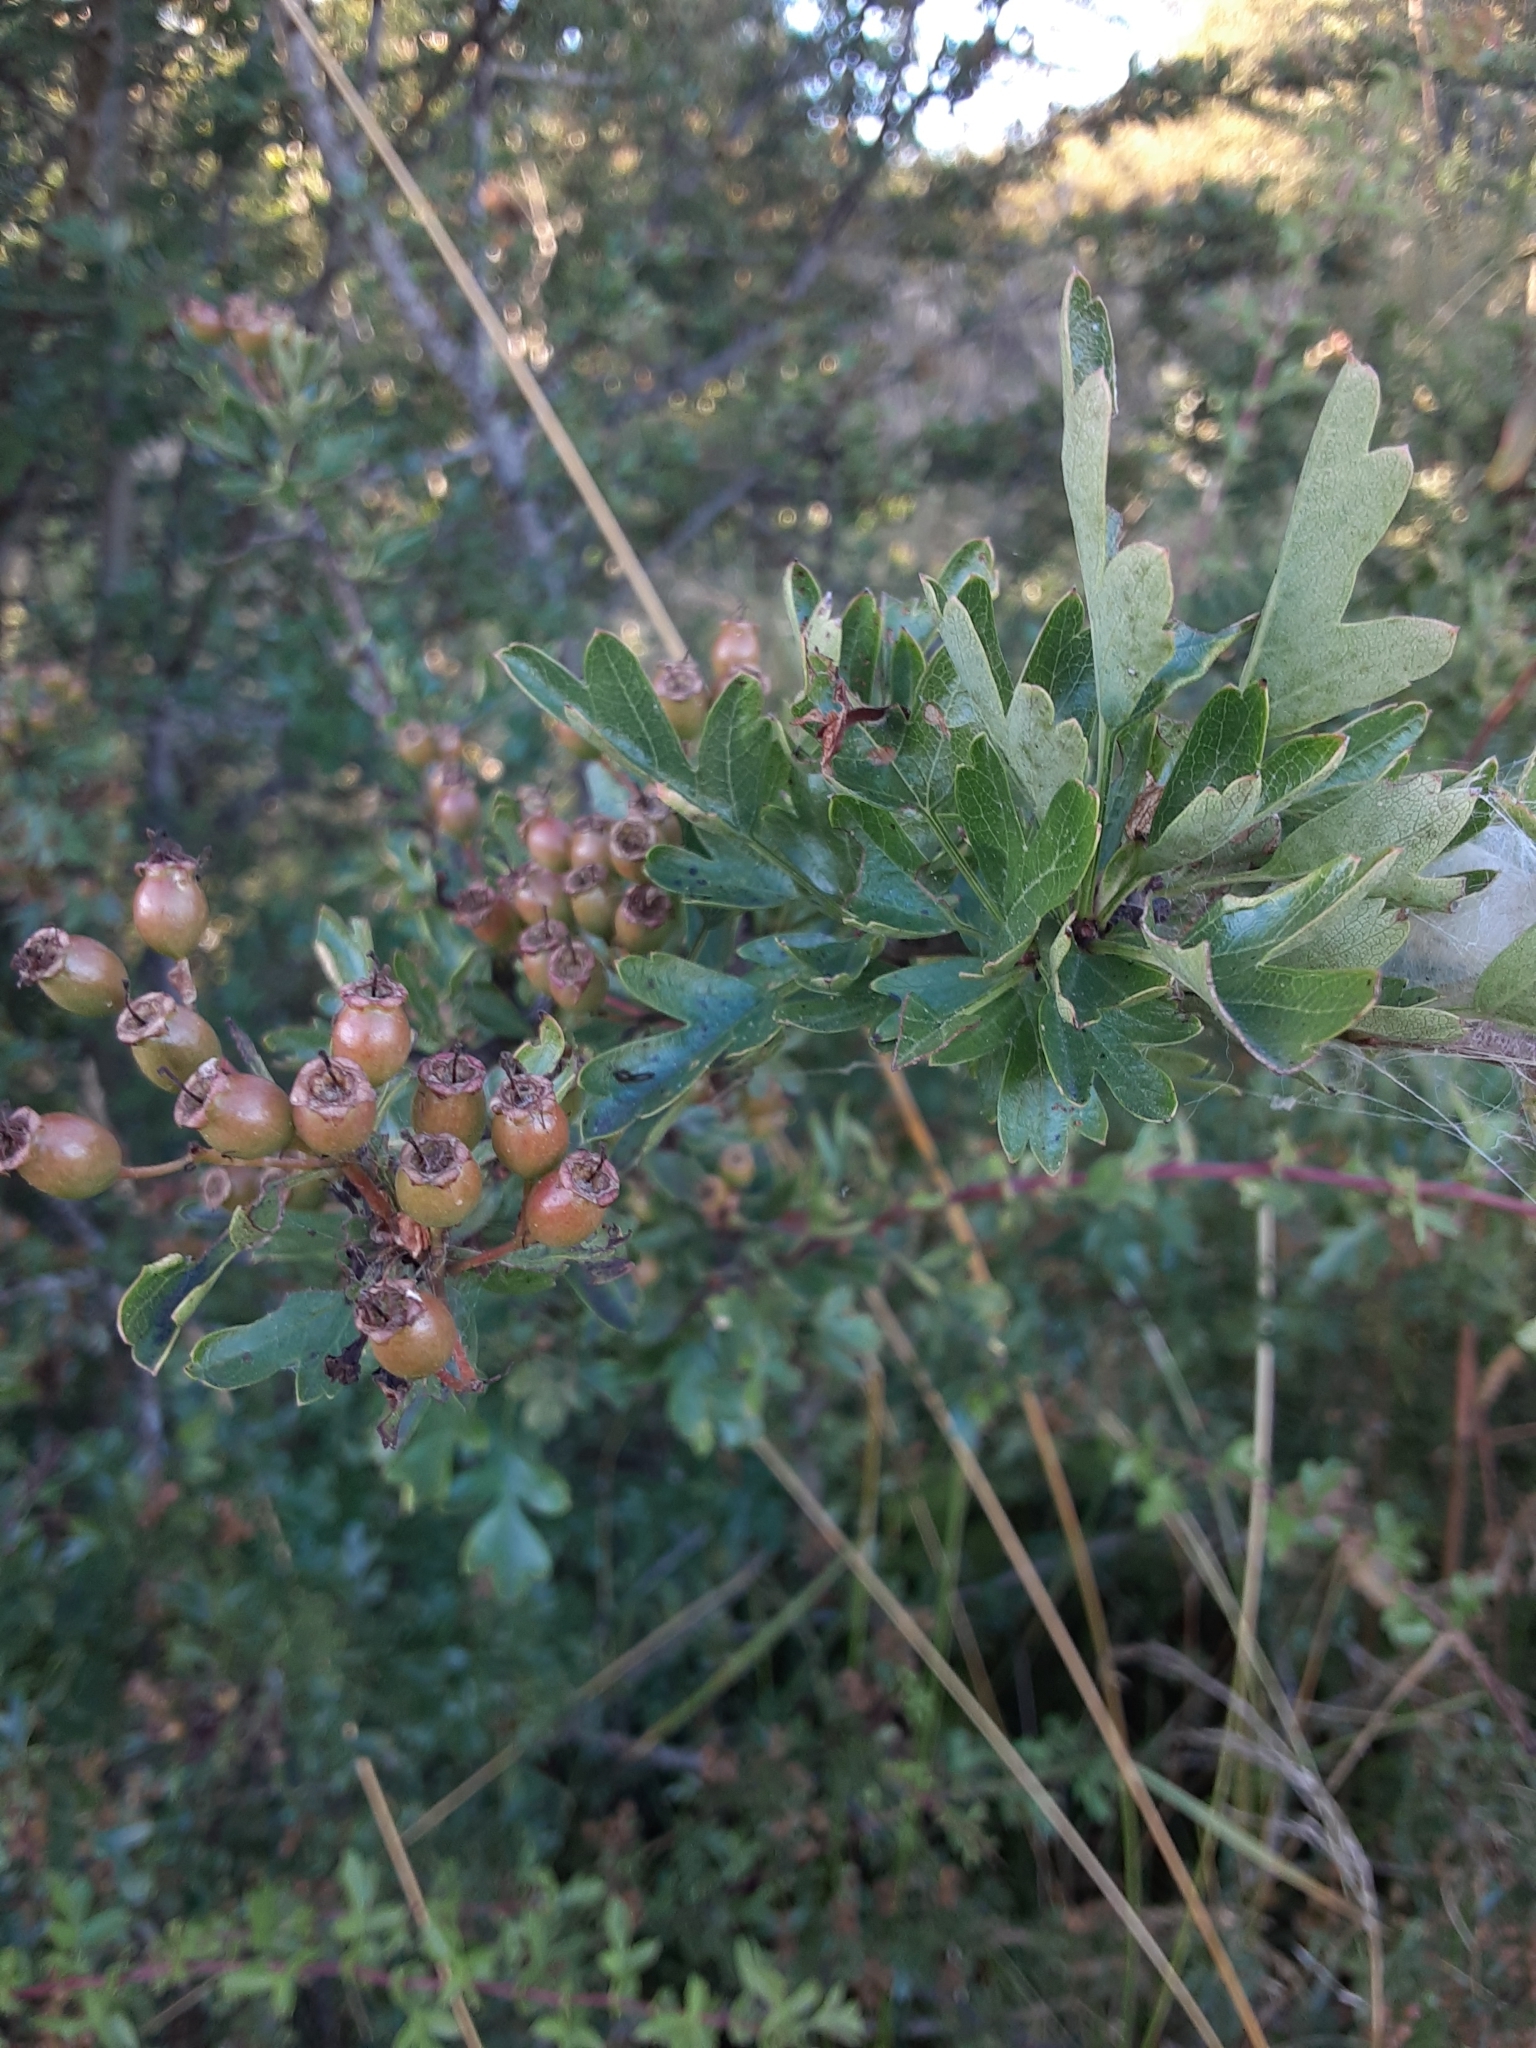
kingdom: Plantae
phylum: Tracheophyta
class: Magnoliopsida
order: Rosales
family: Rosaceae
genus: Crataegus
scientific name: Crataegus monogyna
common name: Hawthorn
